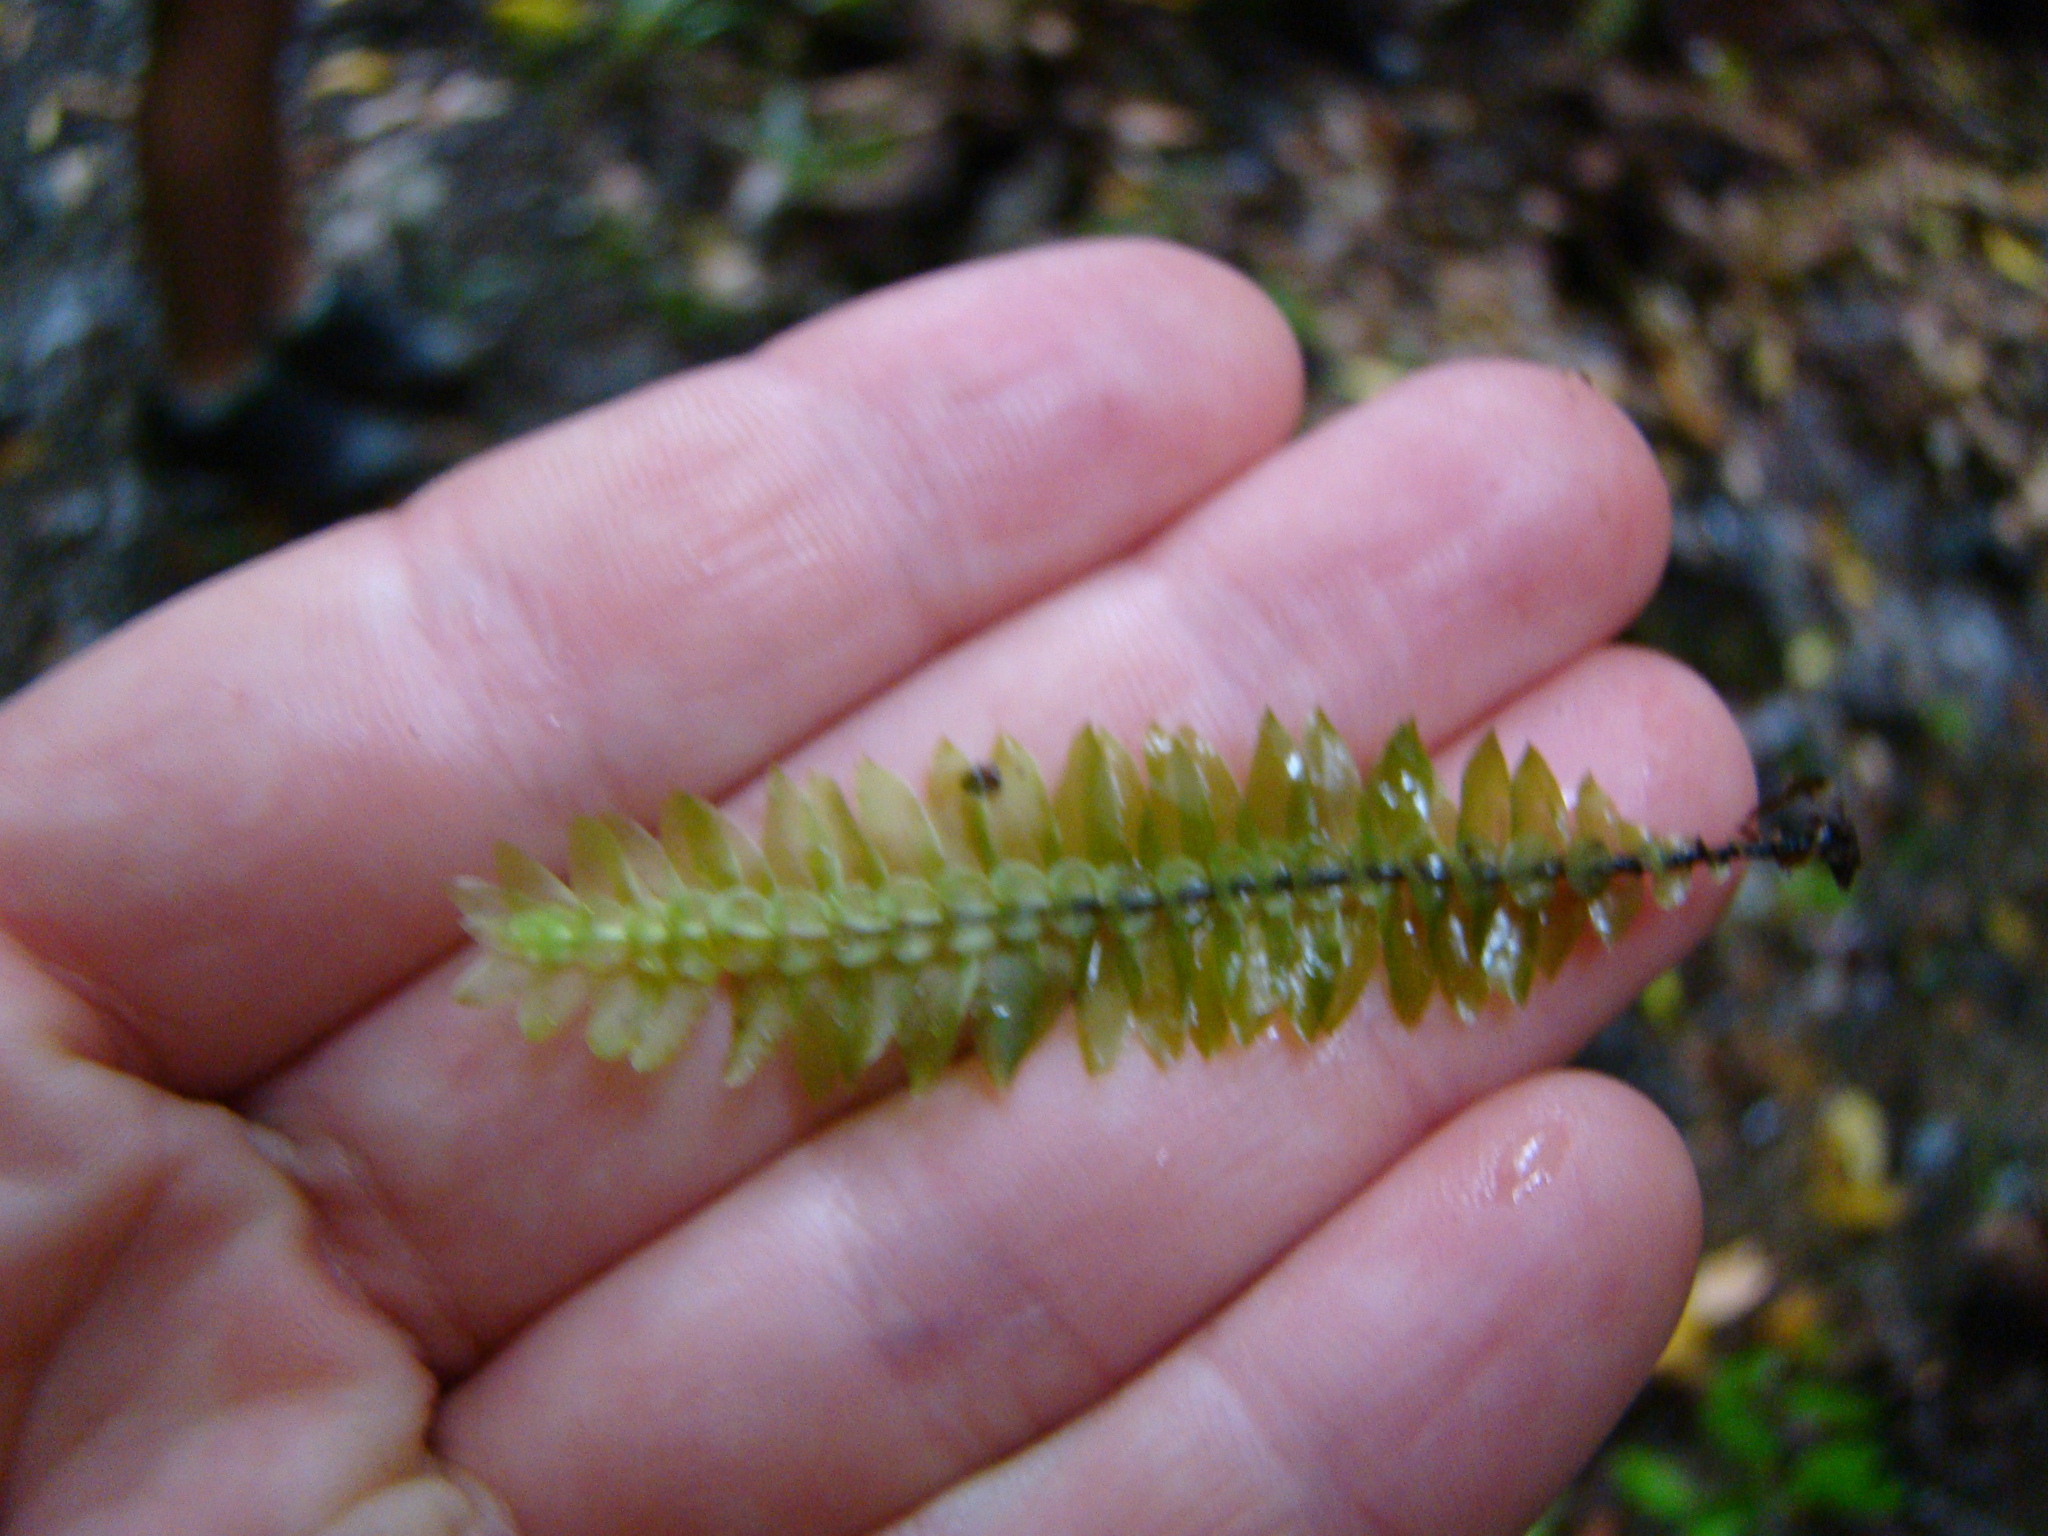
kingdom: Plantae
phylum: Bryophyta
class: Bryopsida
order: Hypopterygiales
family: Hypopterygiaceae
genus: Cyathophorum
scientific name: Cyathophorum bulbosum
